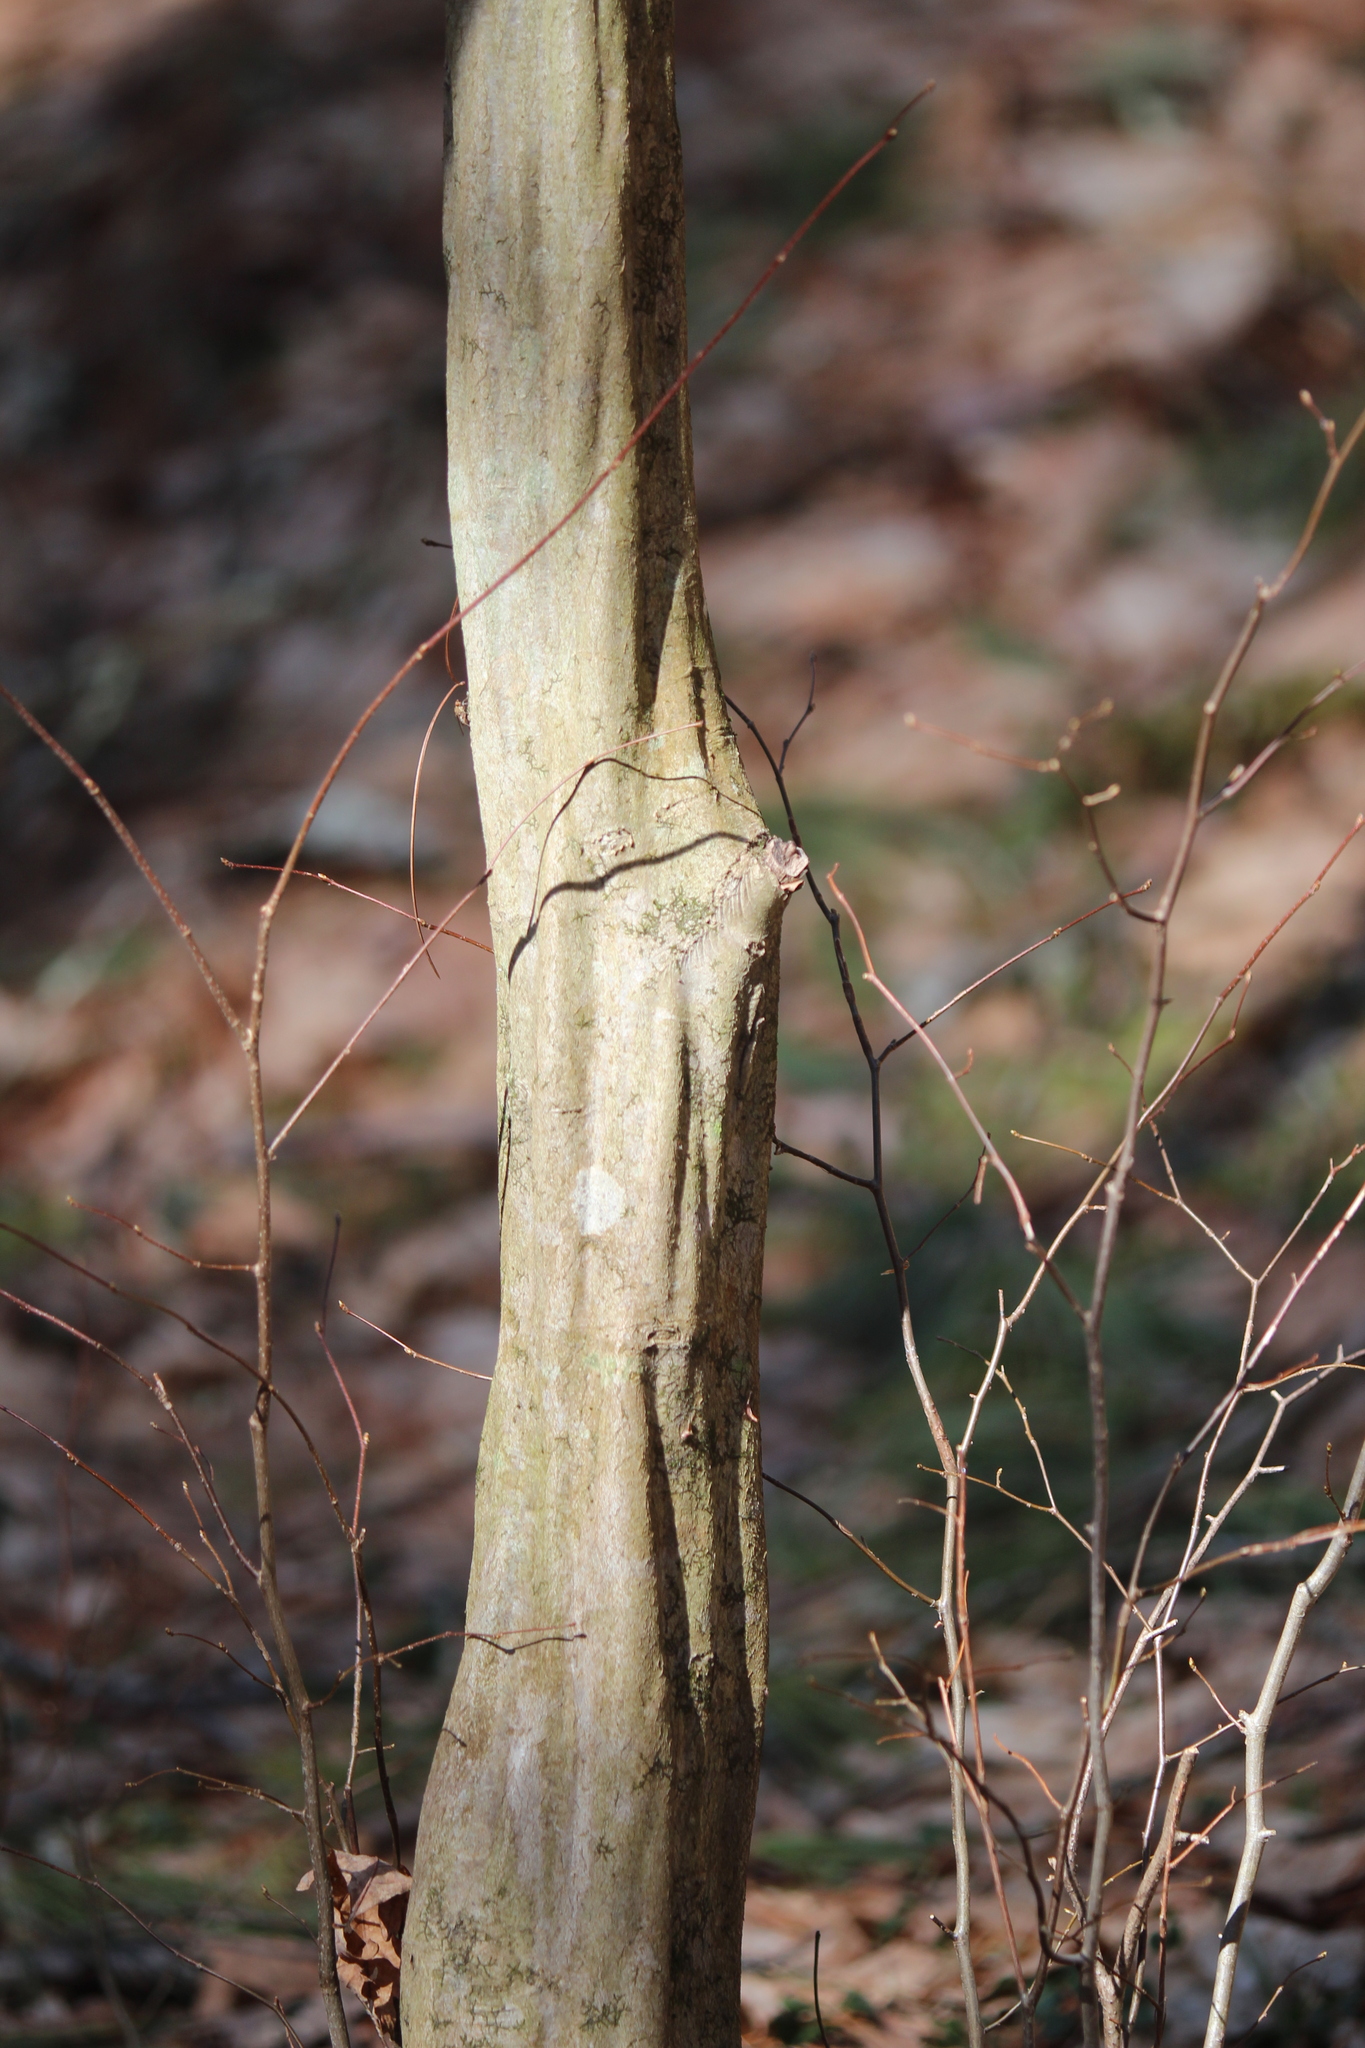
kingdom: Plantae
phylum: Tracheophyta
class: Magnoliopsida
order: Fagales
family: Betulaceae
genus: Carpinus
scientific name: Carpinus caroliniana
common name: American hornbeam
